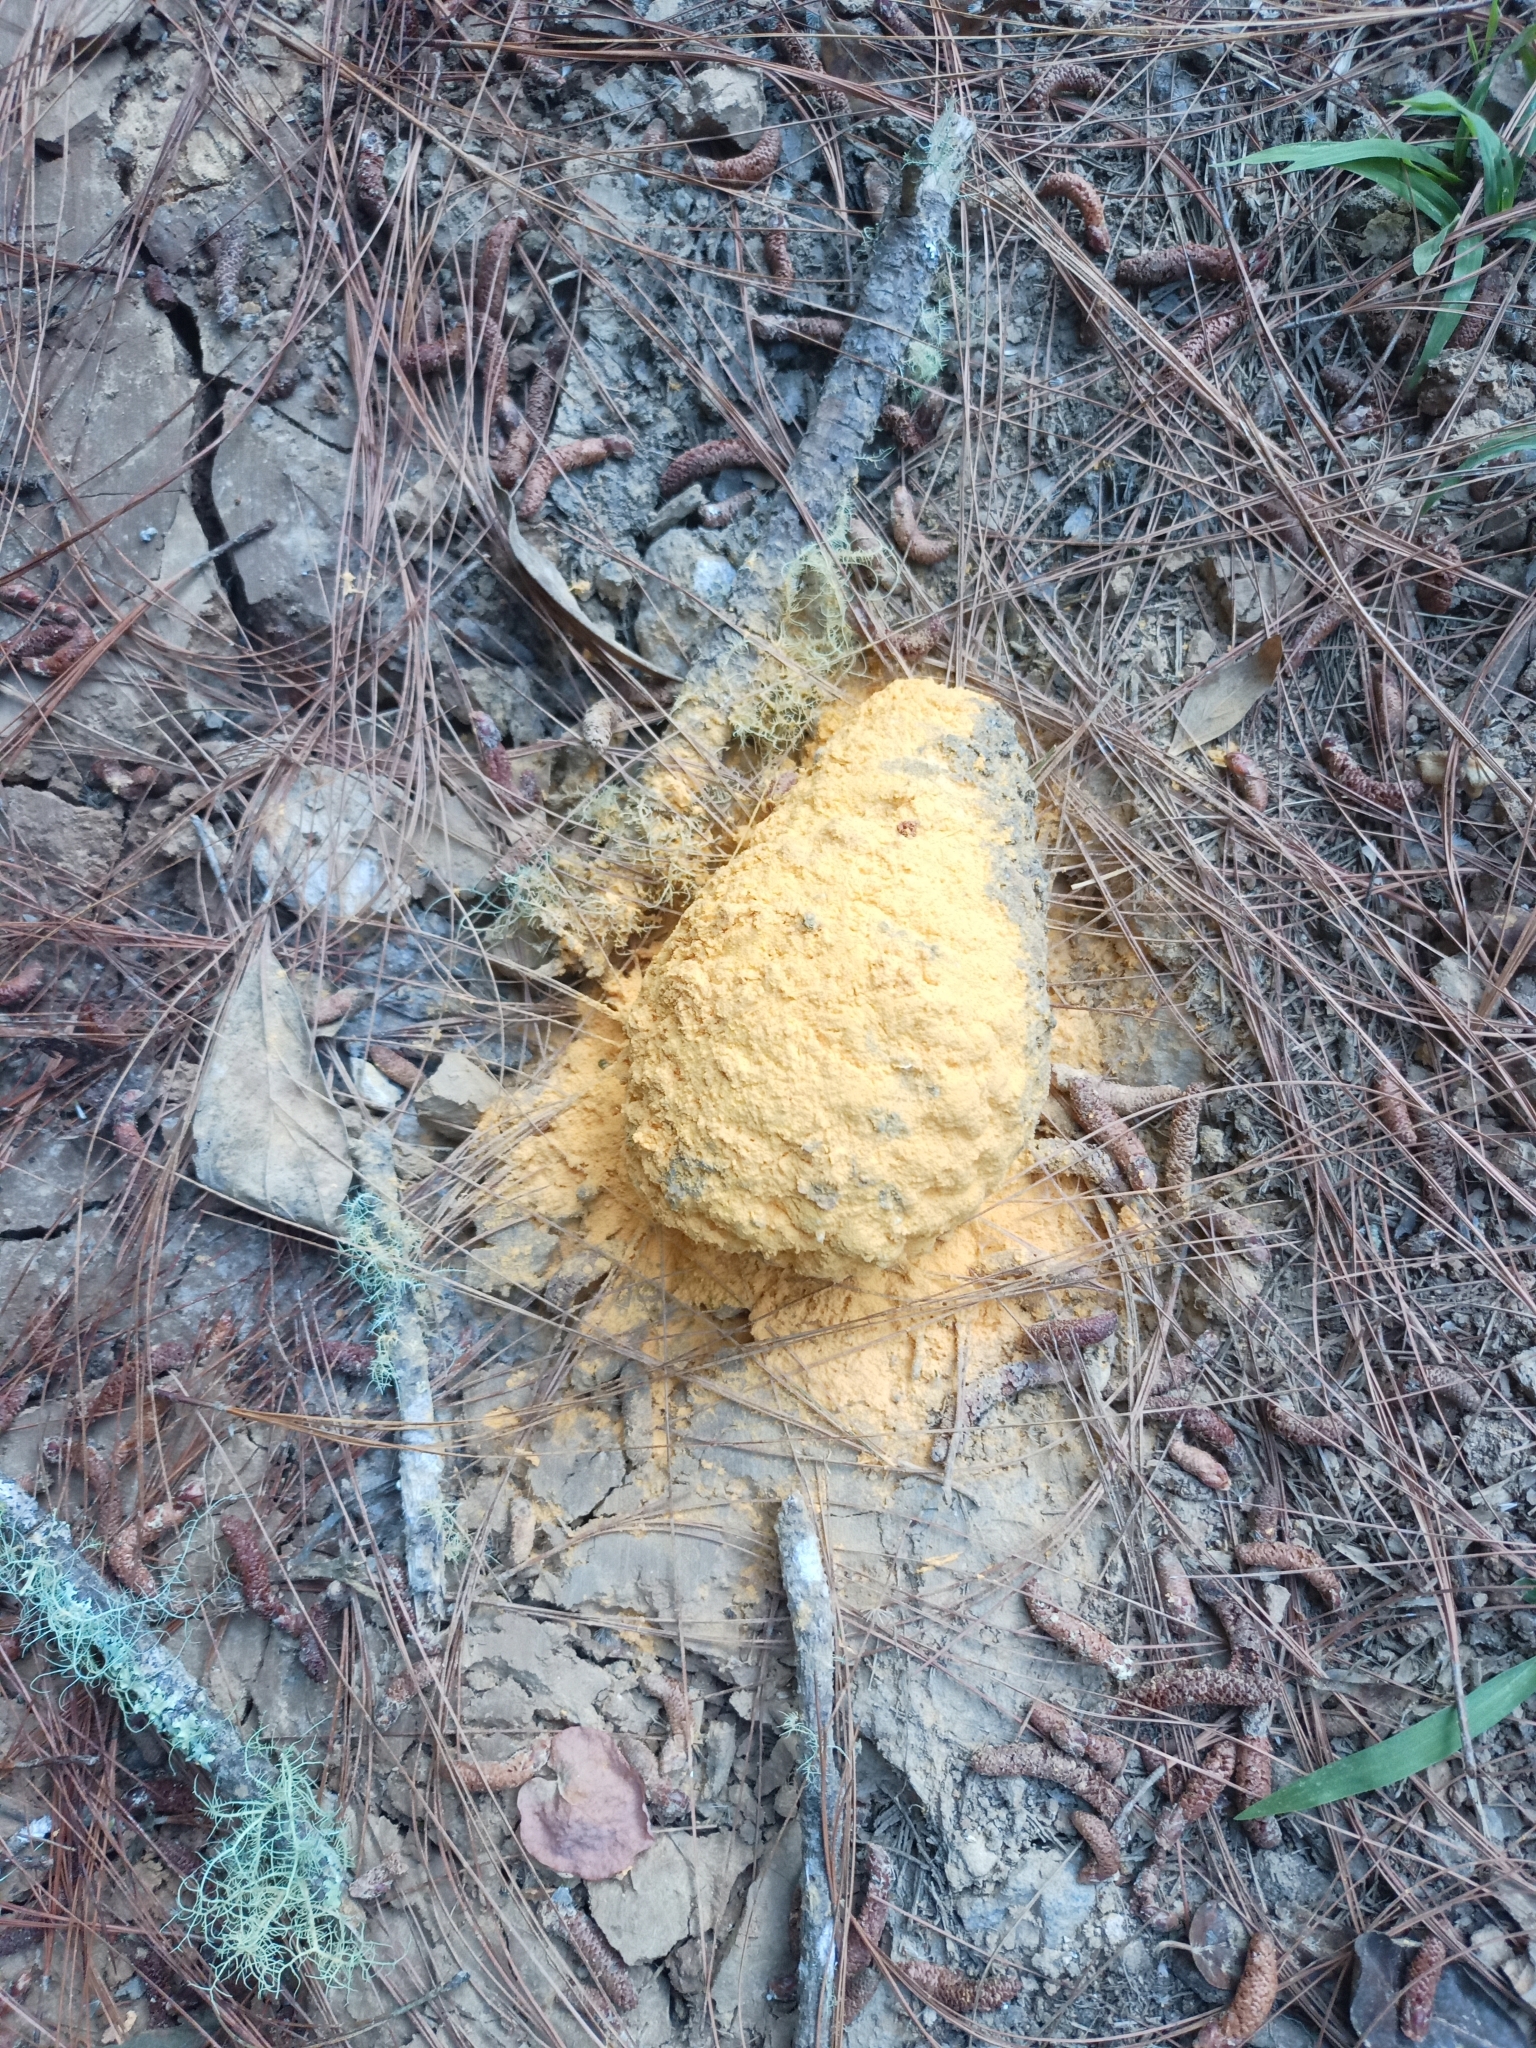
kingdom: Fungi
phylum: Basidiomycota
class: Pucciniomycetes
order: Pucciniales
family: Cronartiaceae
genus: Cronartium
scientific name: Cronartium conigenum
